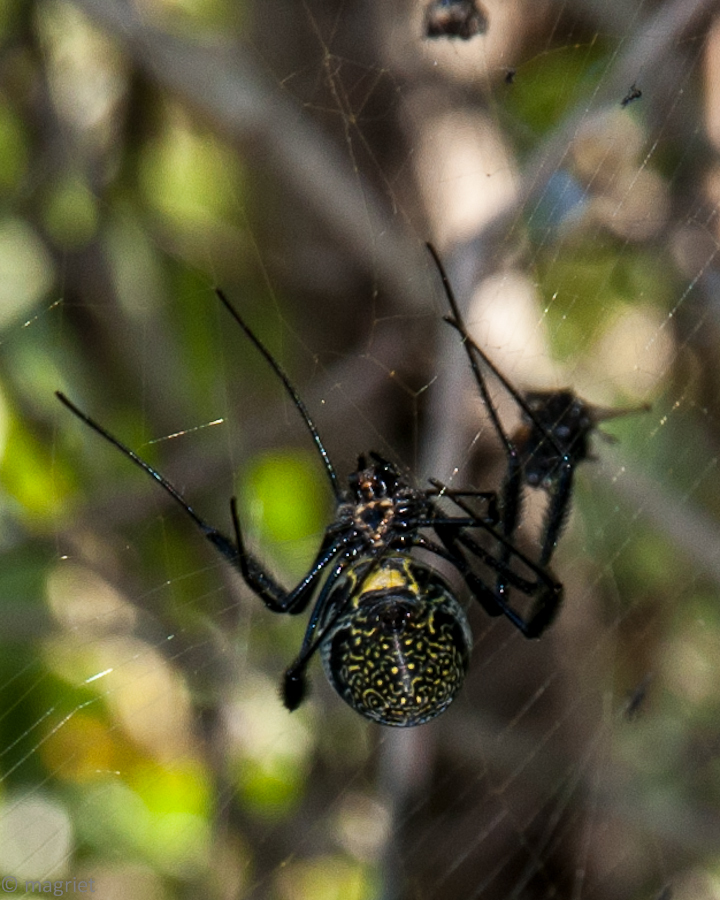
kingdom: Animalia
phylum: Arthropoda
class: Arachnida
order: Araneae
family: Araneidae
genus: Trichonephila
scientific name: Trichonephila fenestrata
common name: Hairy golden orb weaver
